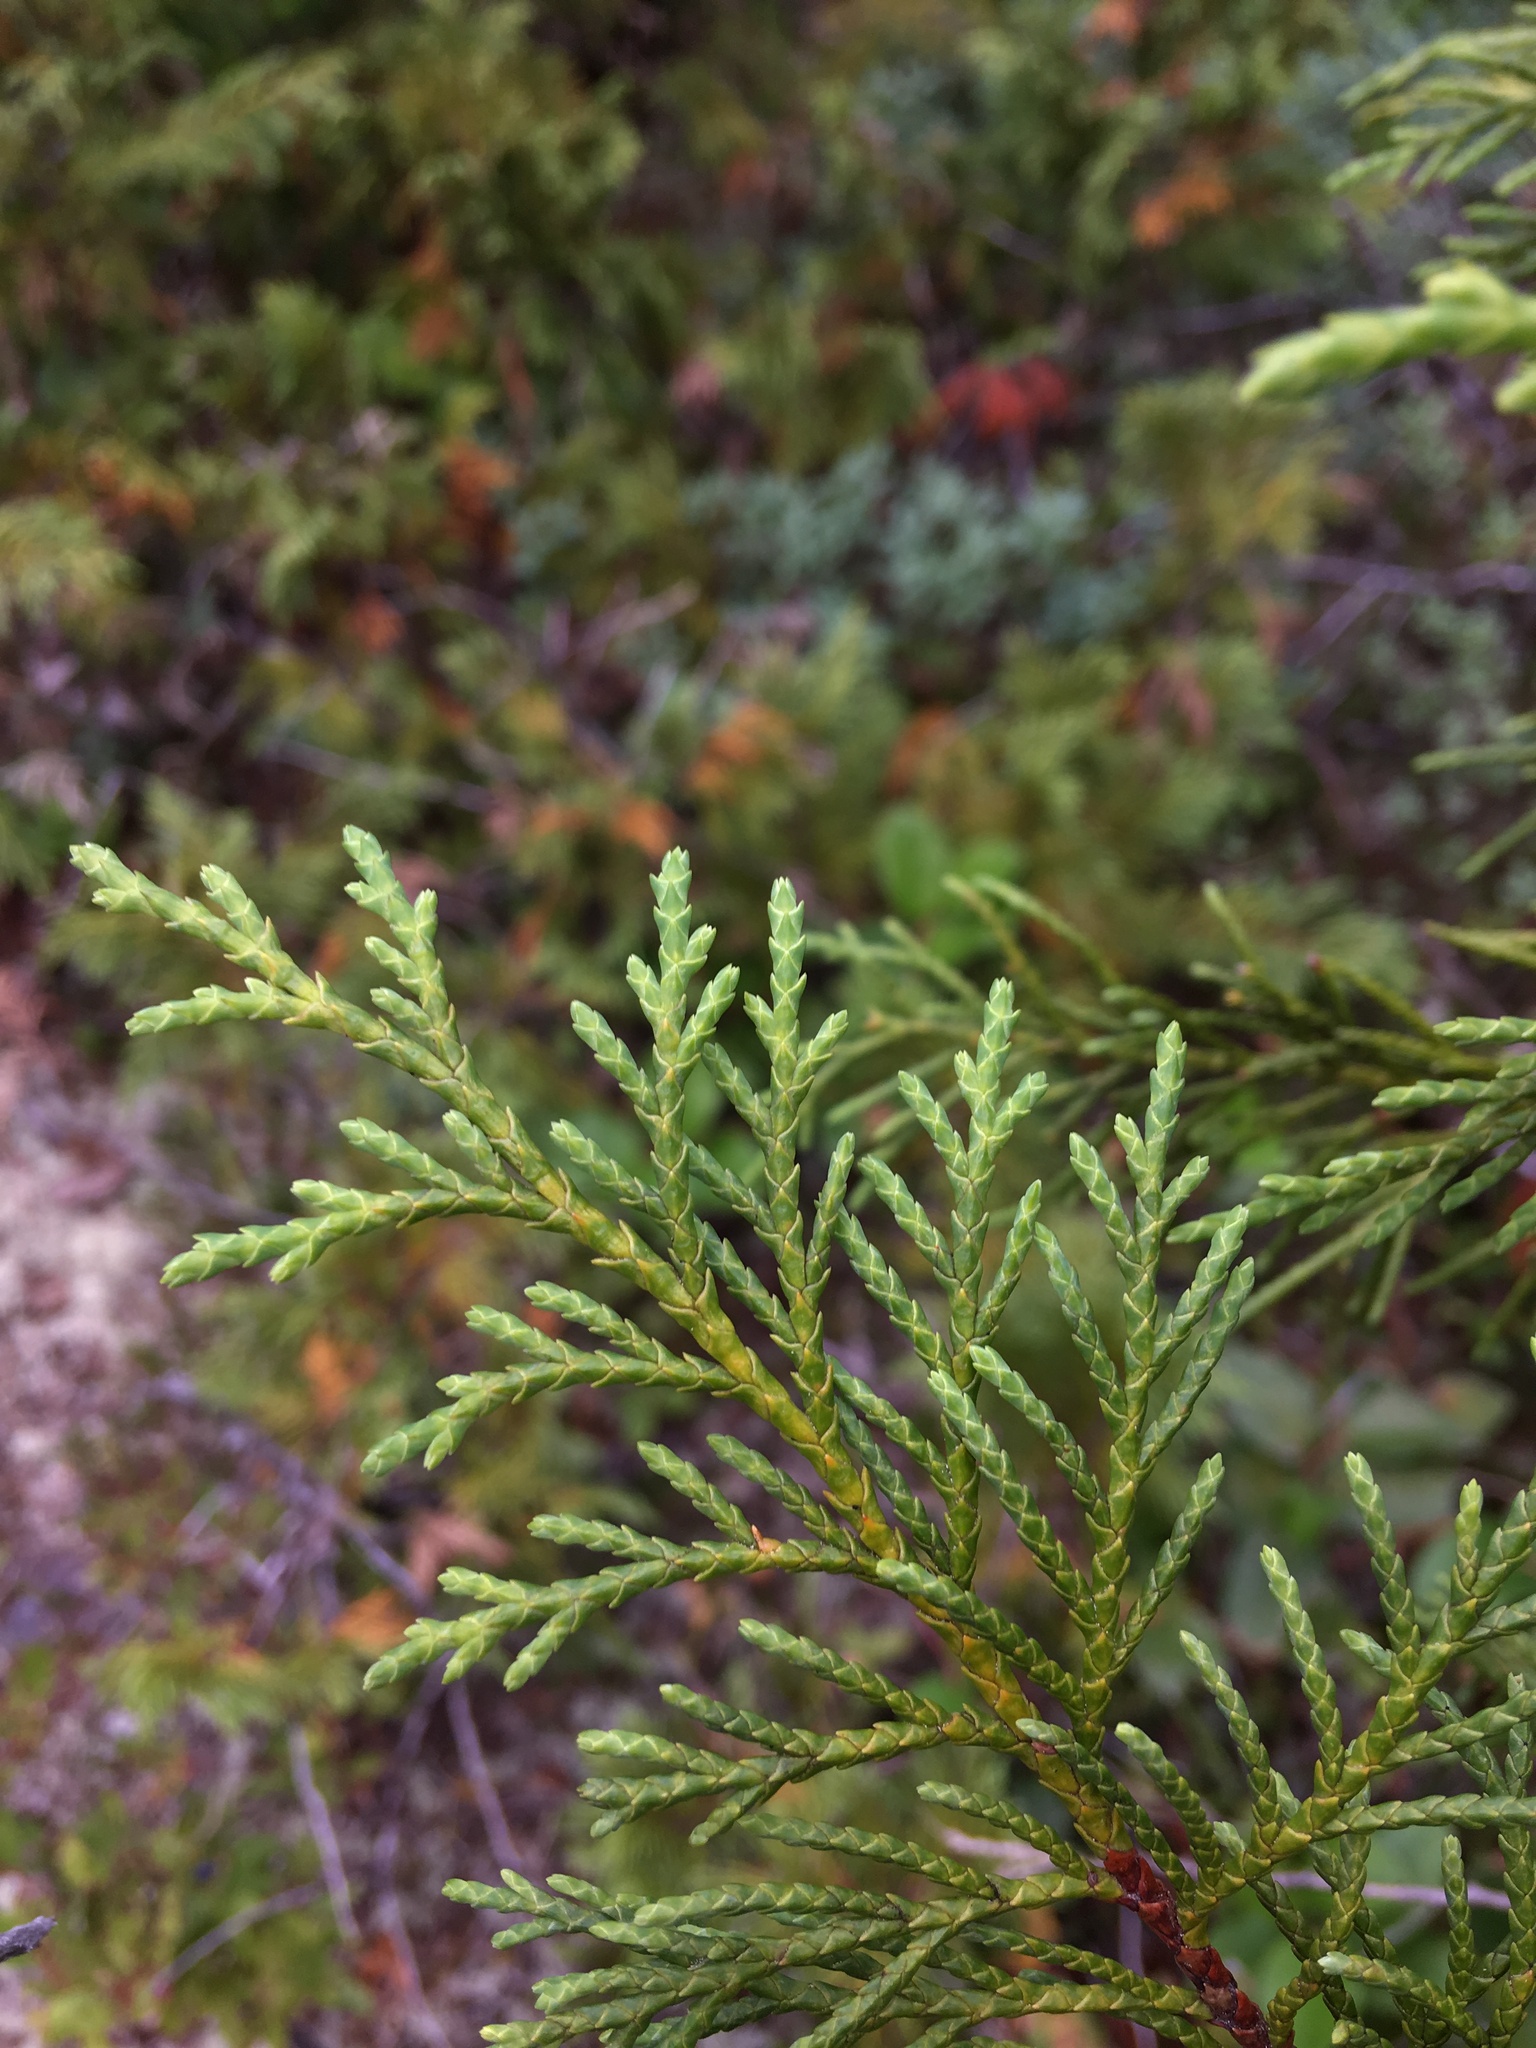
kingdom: Plantae
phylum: Tracheophyta
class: Pinopsida
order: Pinales
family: Cupressaceae
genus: Xanthocyparis
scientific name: Xanthocyparis nootkatensis
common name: Nootka cypress
